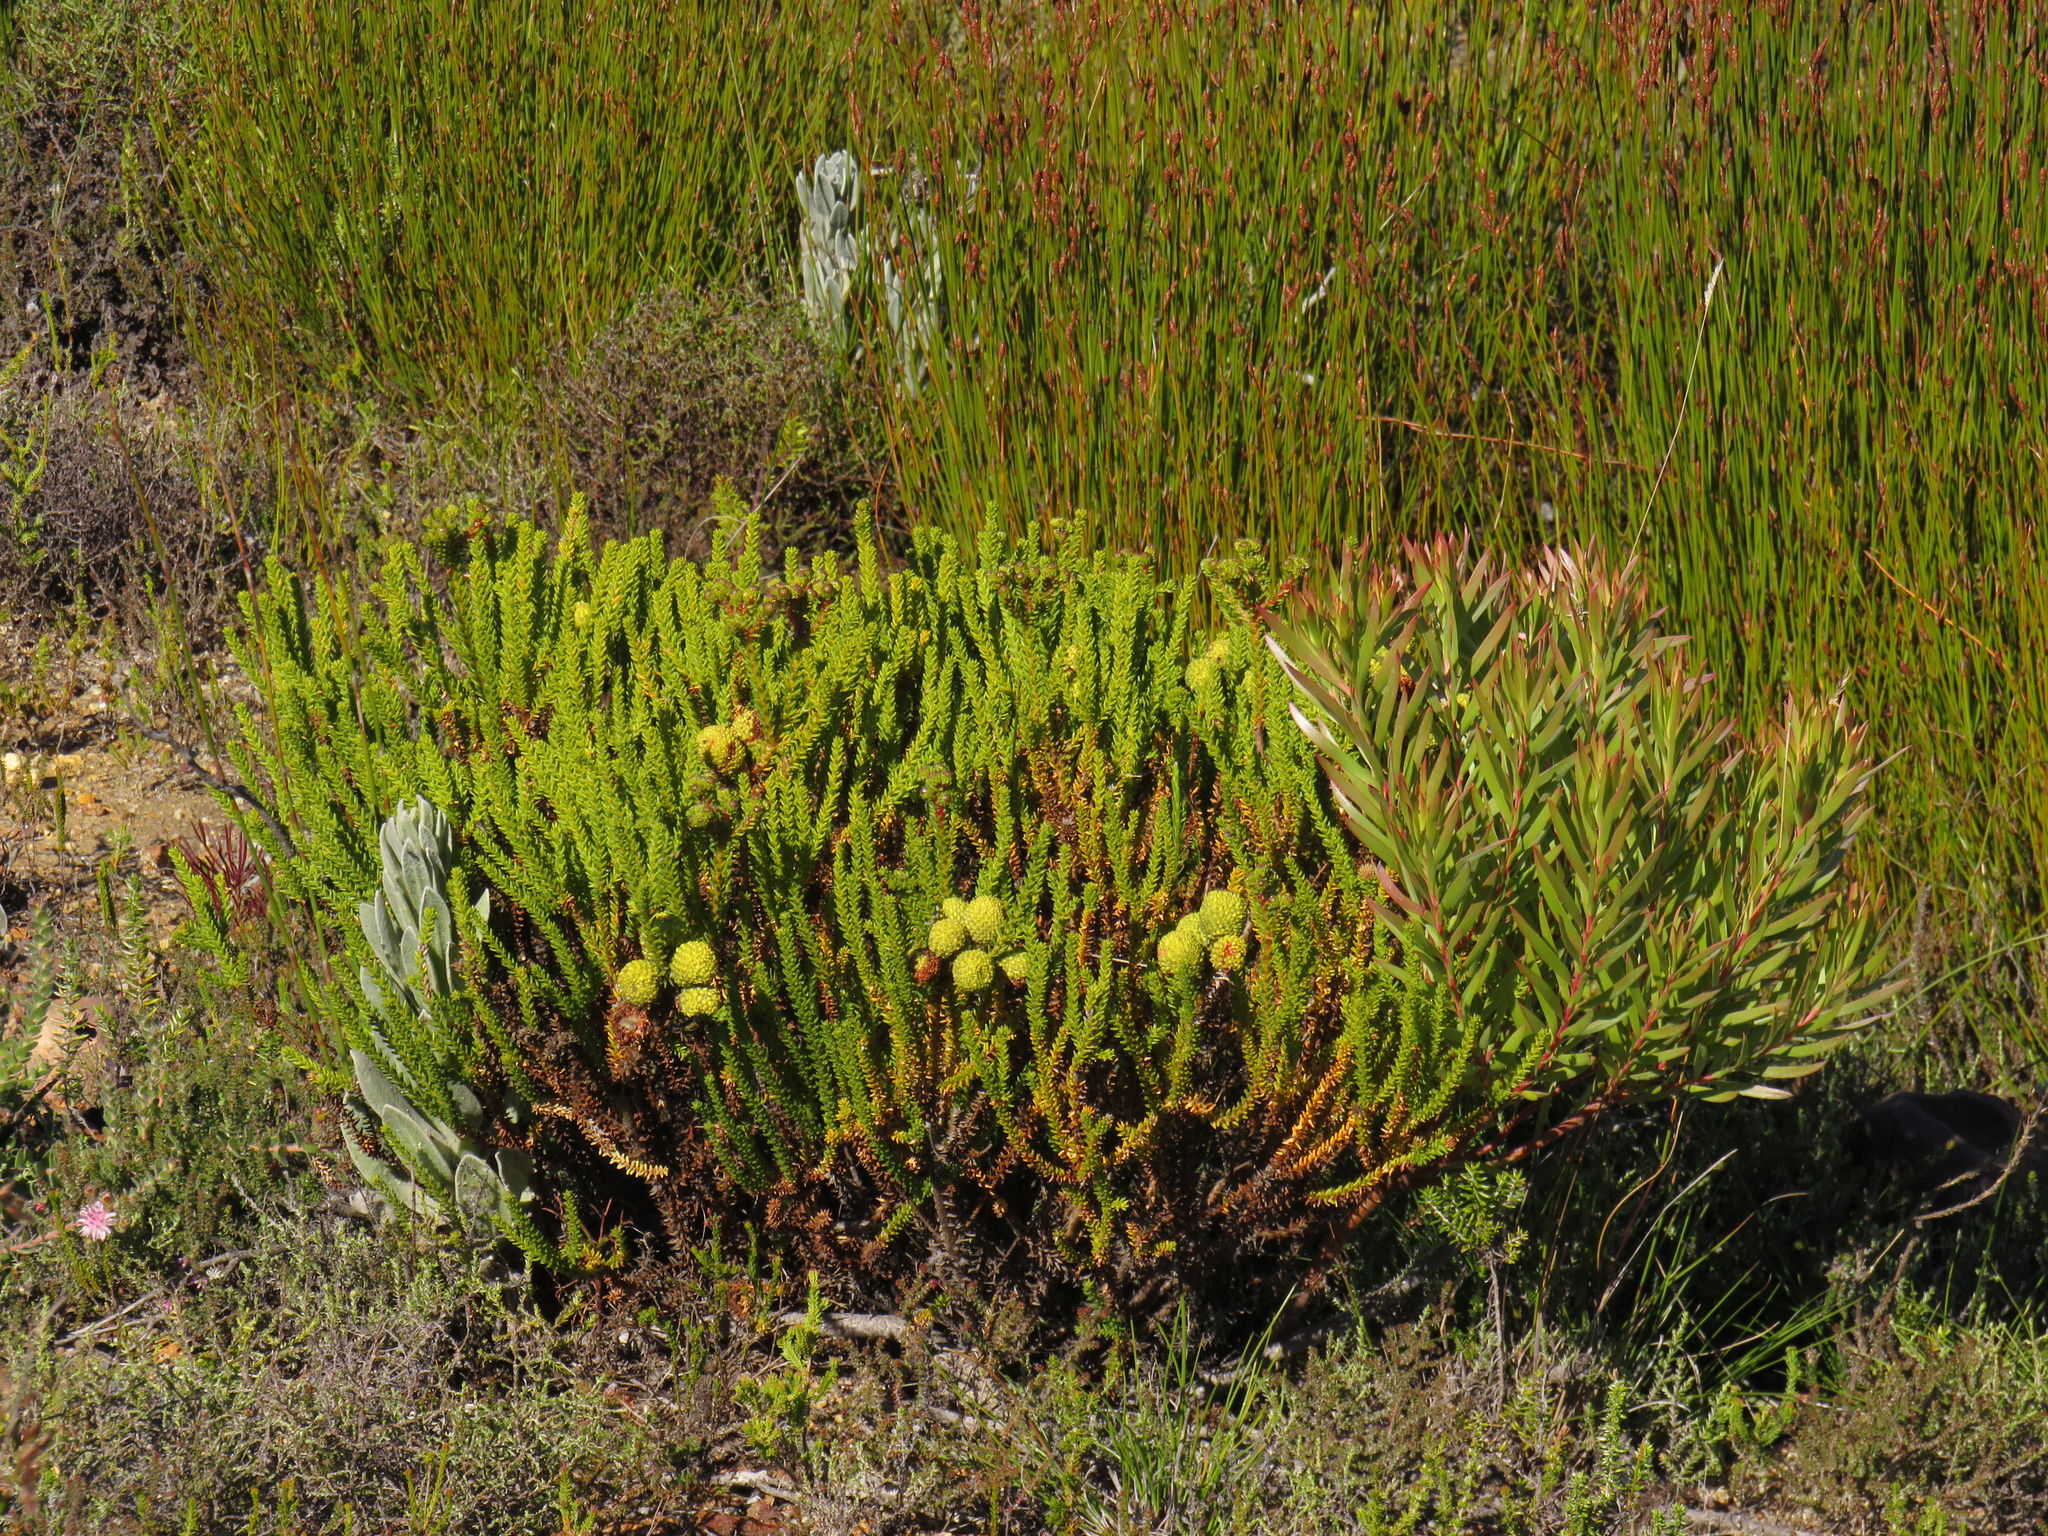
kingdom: Plantae
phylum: Tracheophyta
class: Magnoliopsida
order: Bruniales
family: Bruniaceae
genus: Berzelia
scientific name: Berzelia abrotanoides
